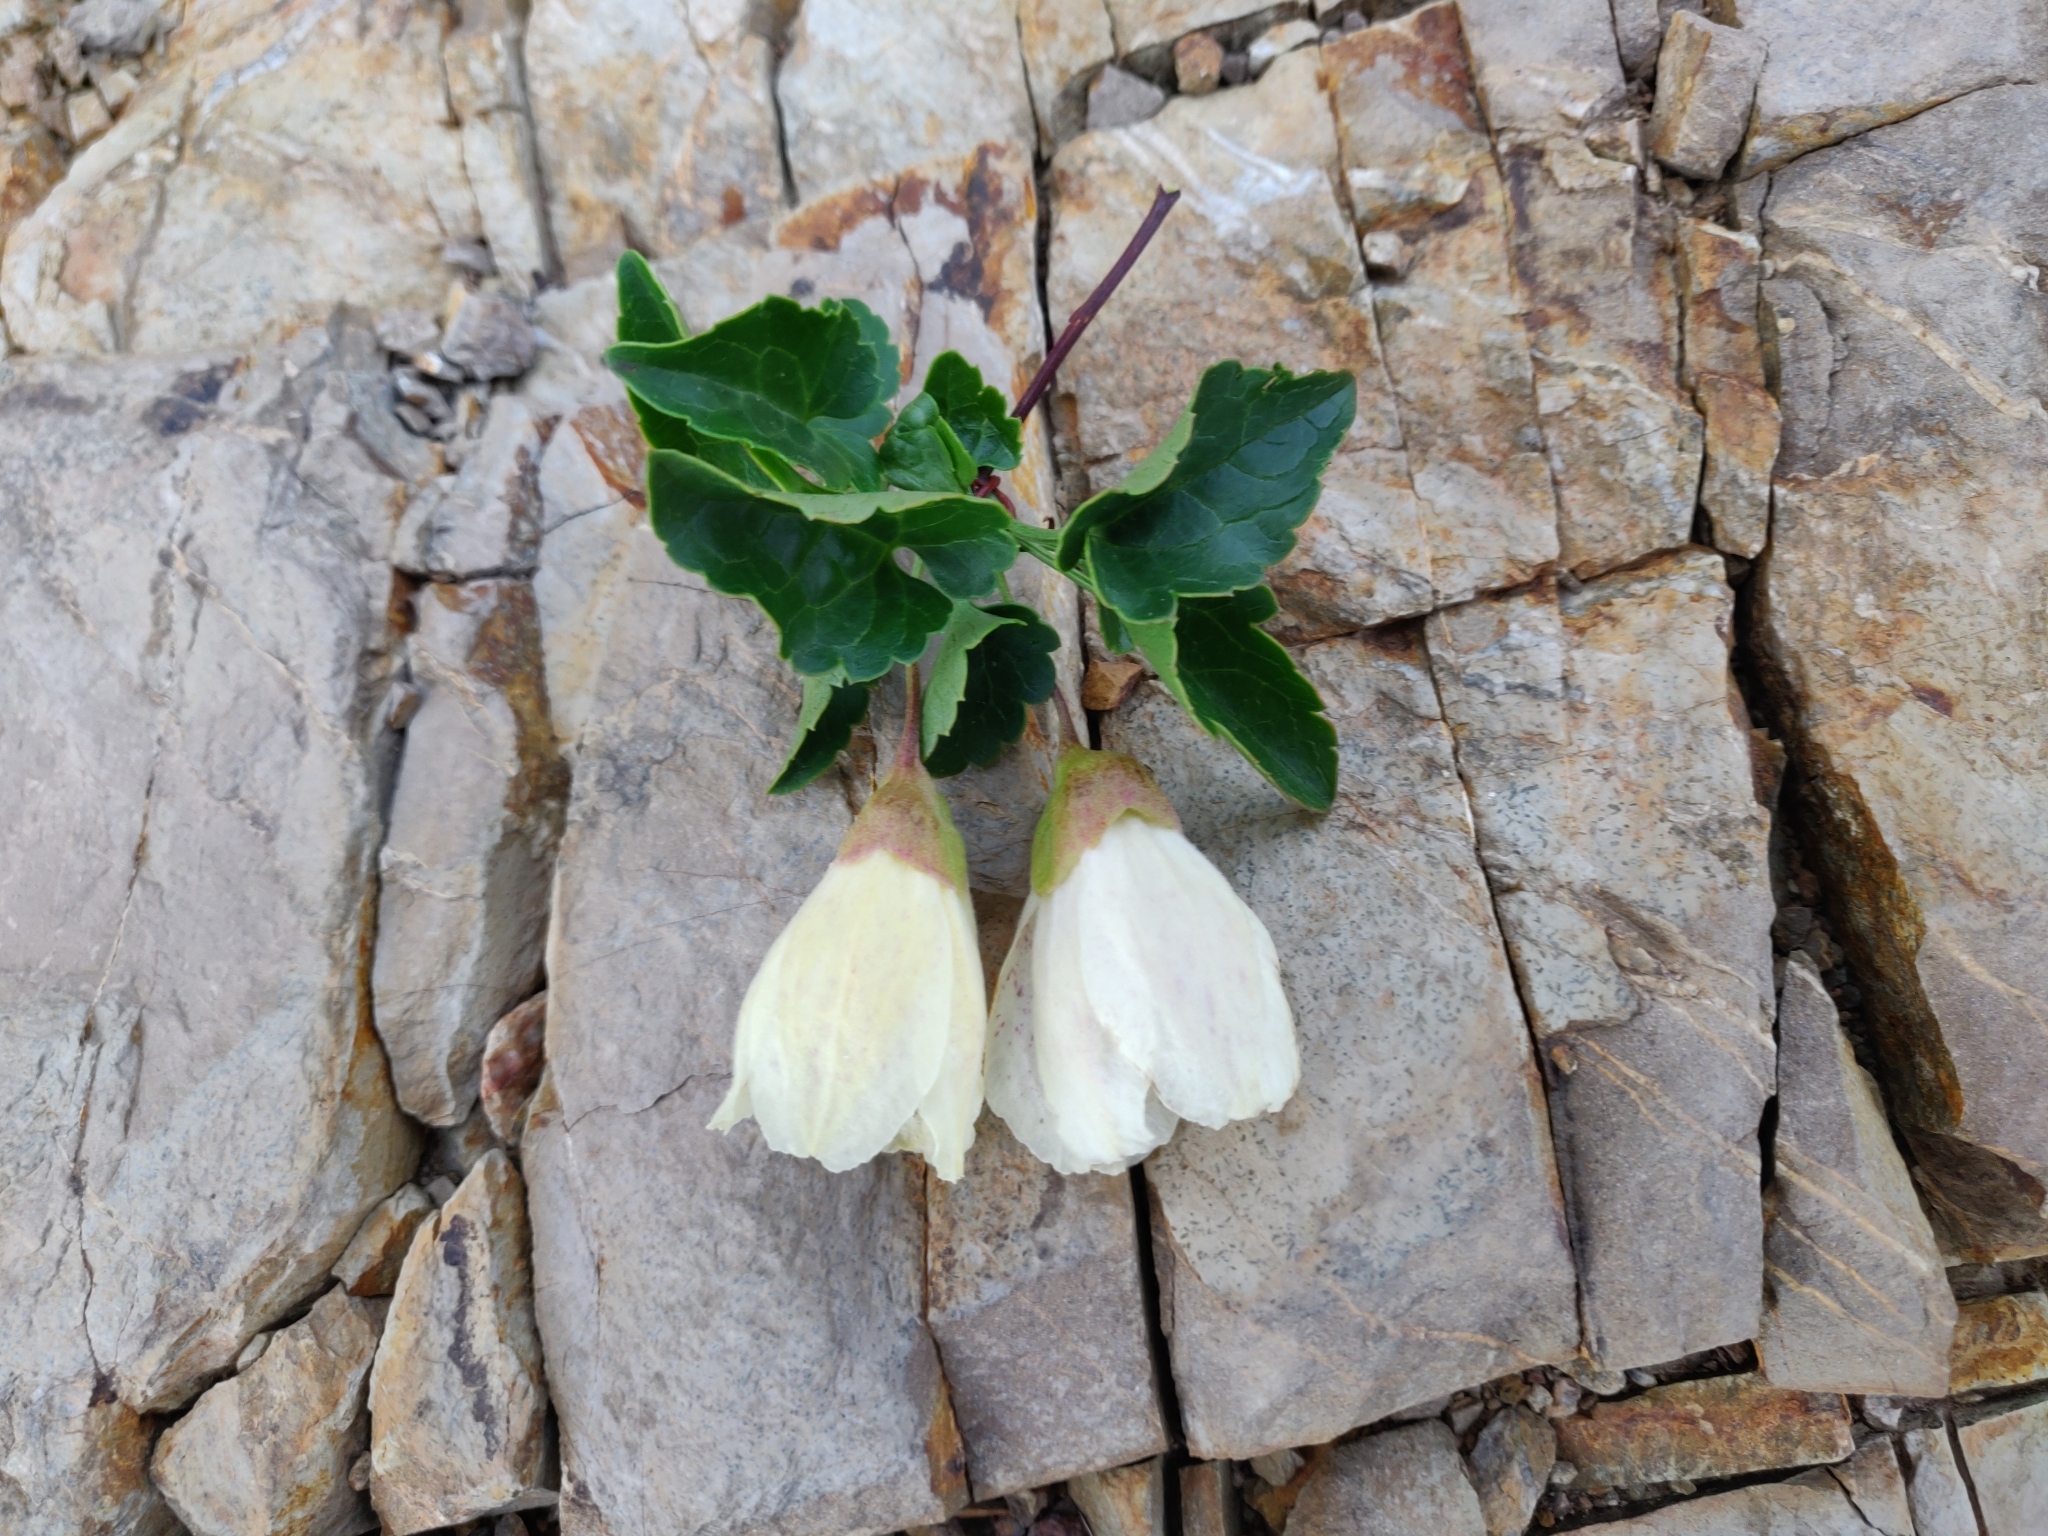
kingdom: Plantae
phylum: Tracheophyta
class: Magnoliopsida
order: Ranunculales
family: Ranunculaceae
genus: Clematis
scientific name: Clematis cirrhosa
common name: Early virgin's-bower
